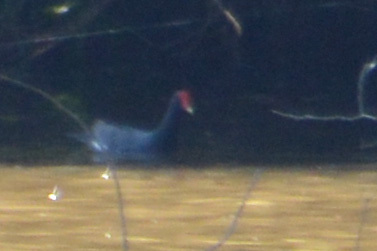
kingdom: Animalia
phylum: Chordata
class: Aves
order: Gruiformes
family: Rallidae
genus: Gallinula
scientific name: Gallinula chloropus
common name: Common moorhen
